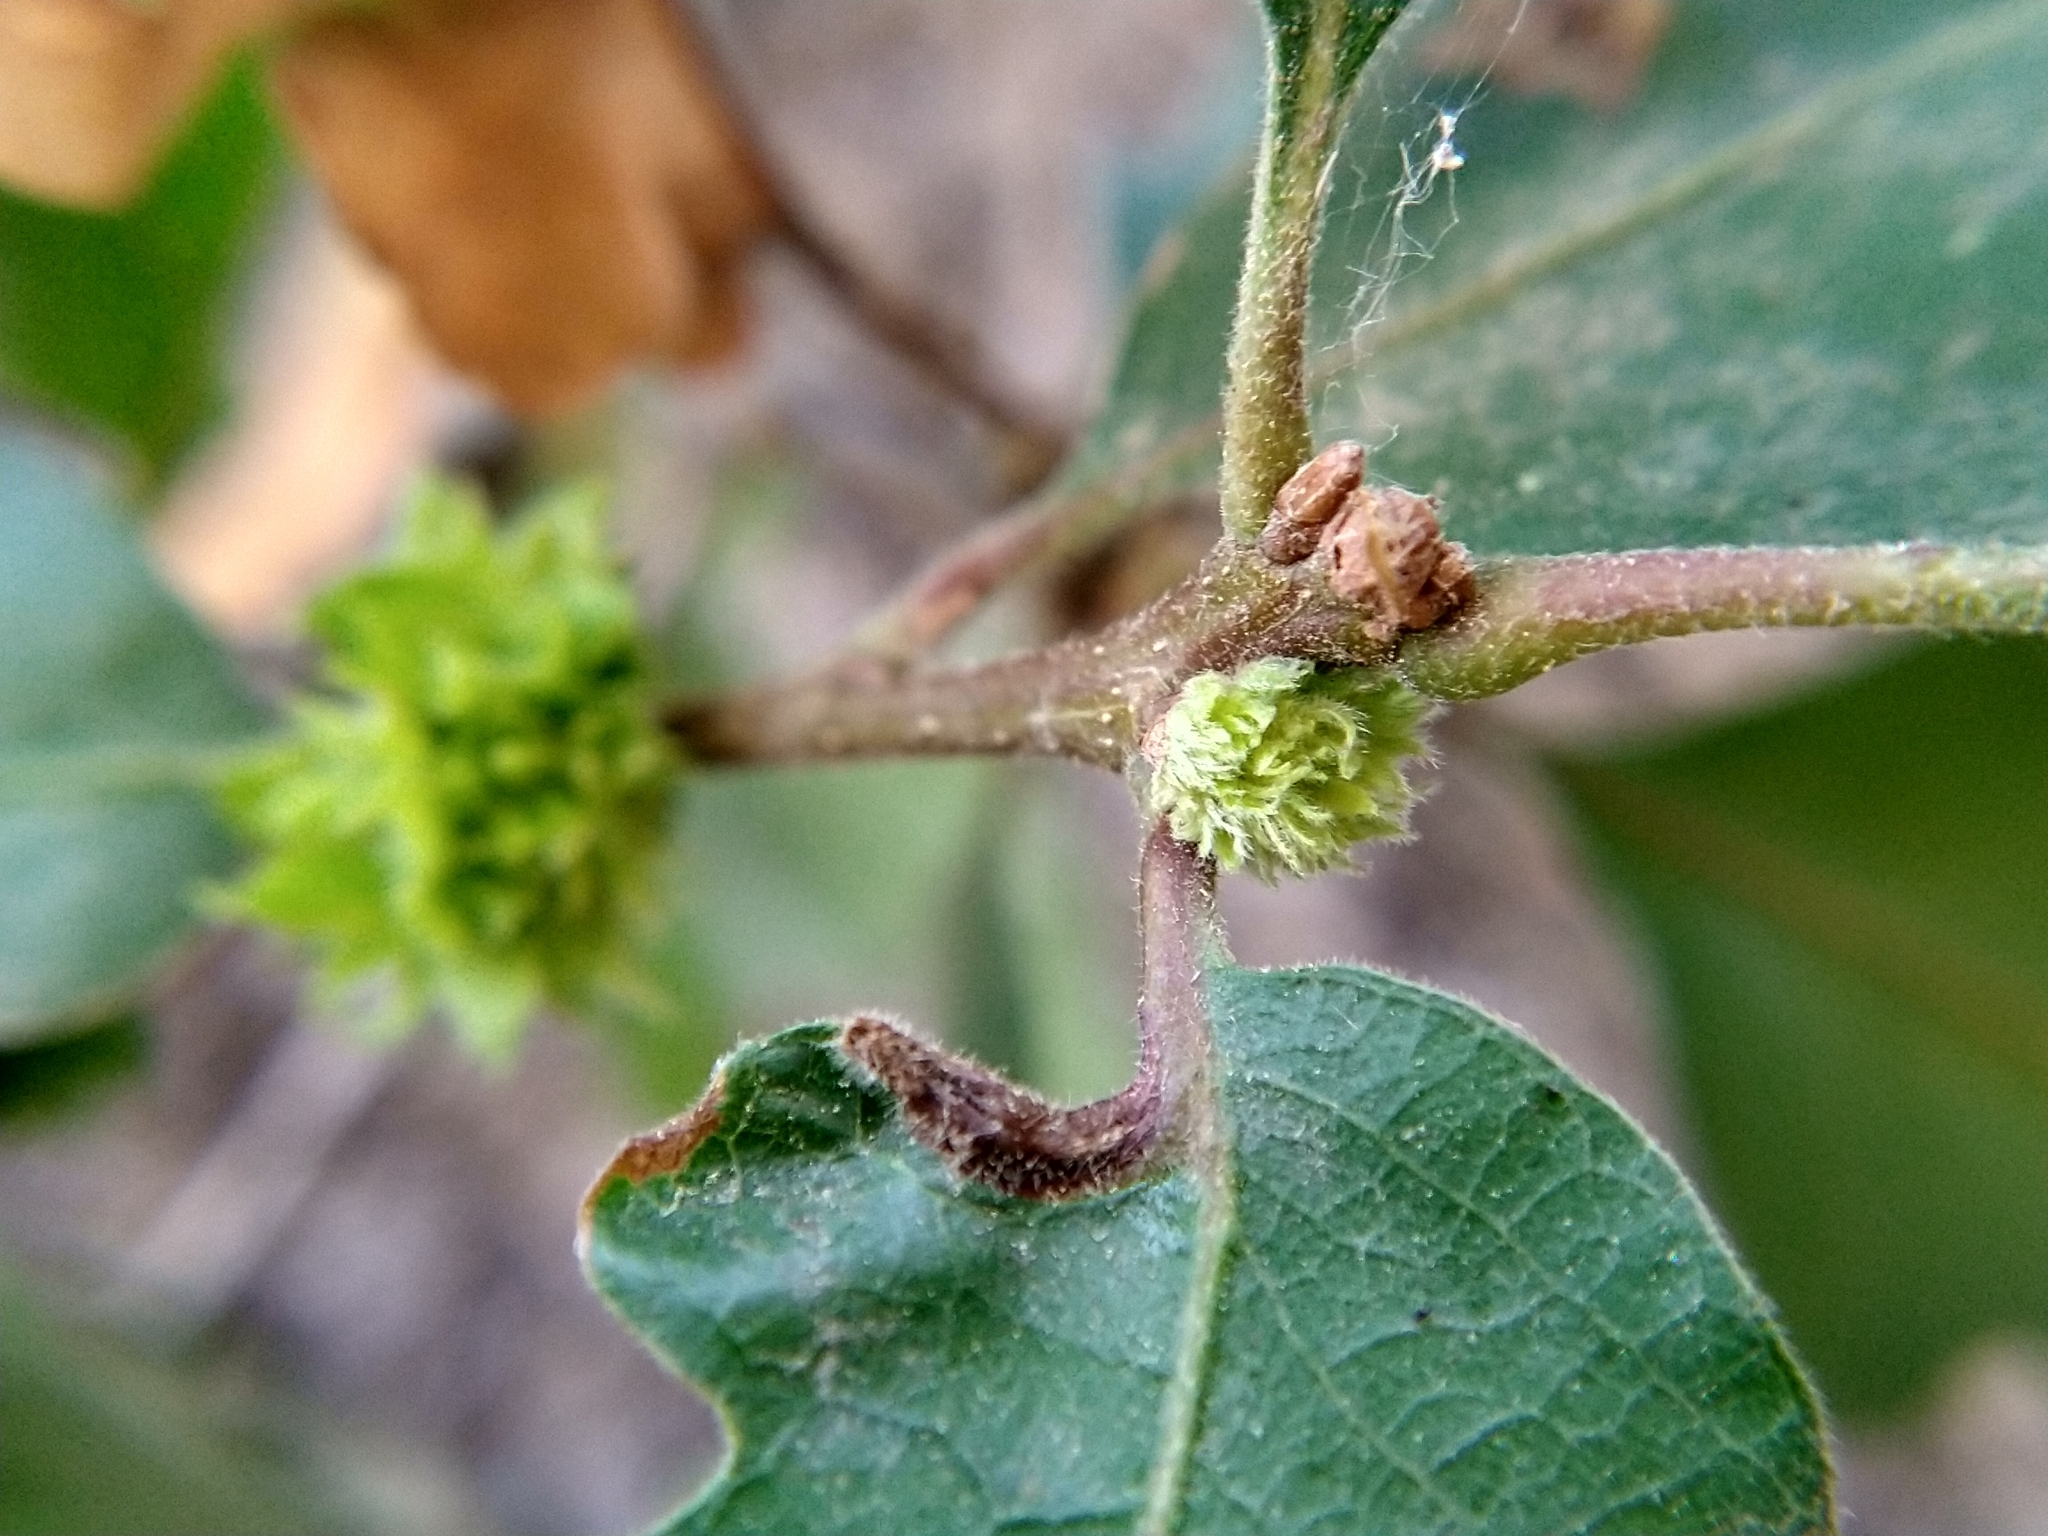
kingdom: Animalia
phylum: Arthropoda
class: Insecta
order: Hymenoptera
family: Cynipidae
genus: Andricus
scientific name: Andricus
